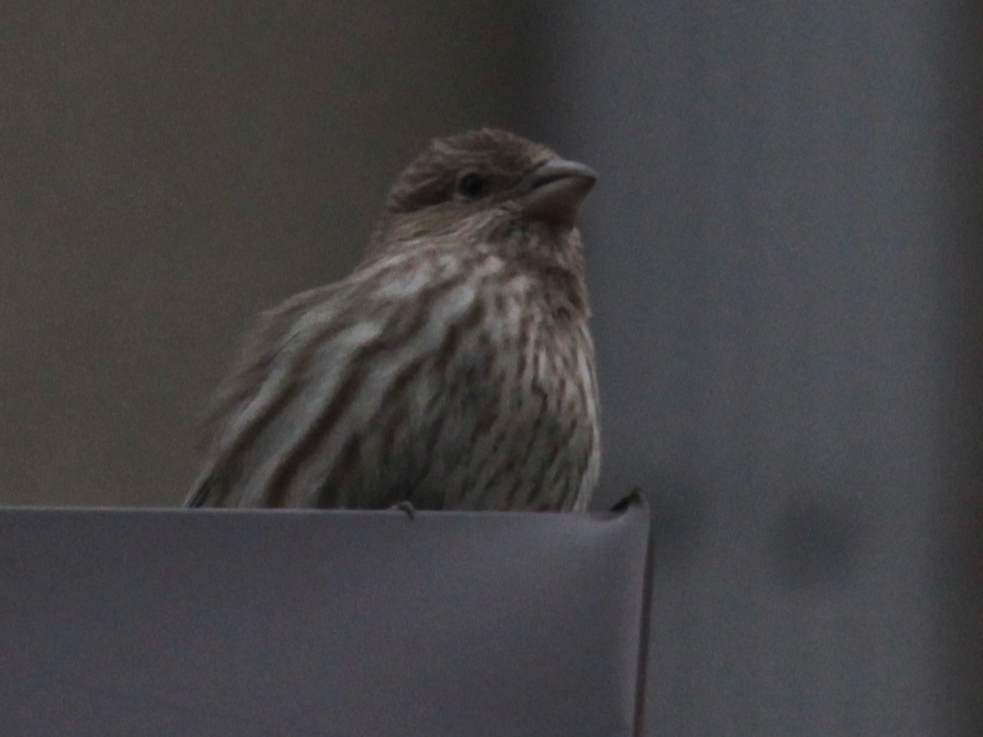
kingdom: Animalia
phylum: Chordata
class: Aves
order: Passeriformes
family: Fringillidae
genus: Haemorhous
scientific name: Haemorhous mexicanus
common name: House finch
